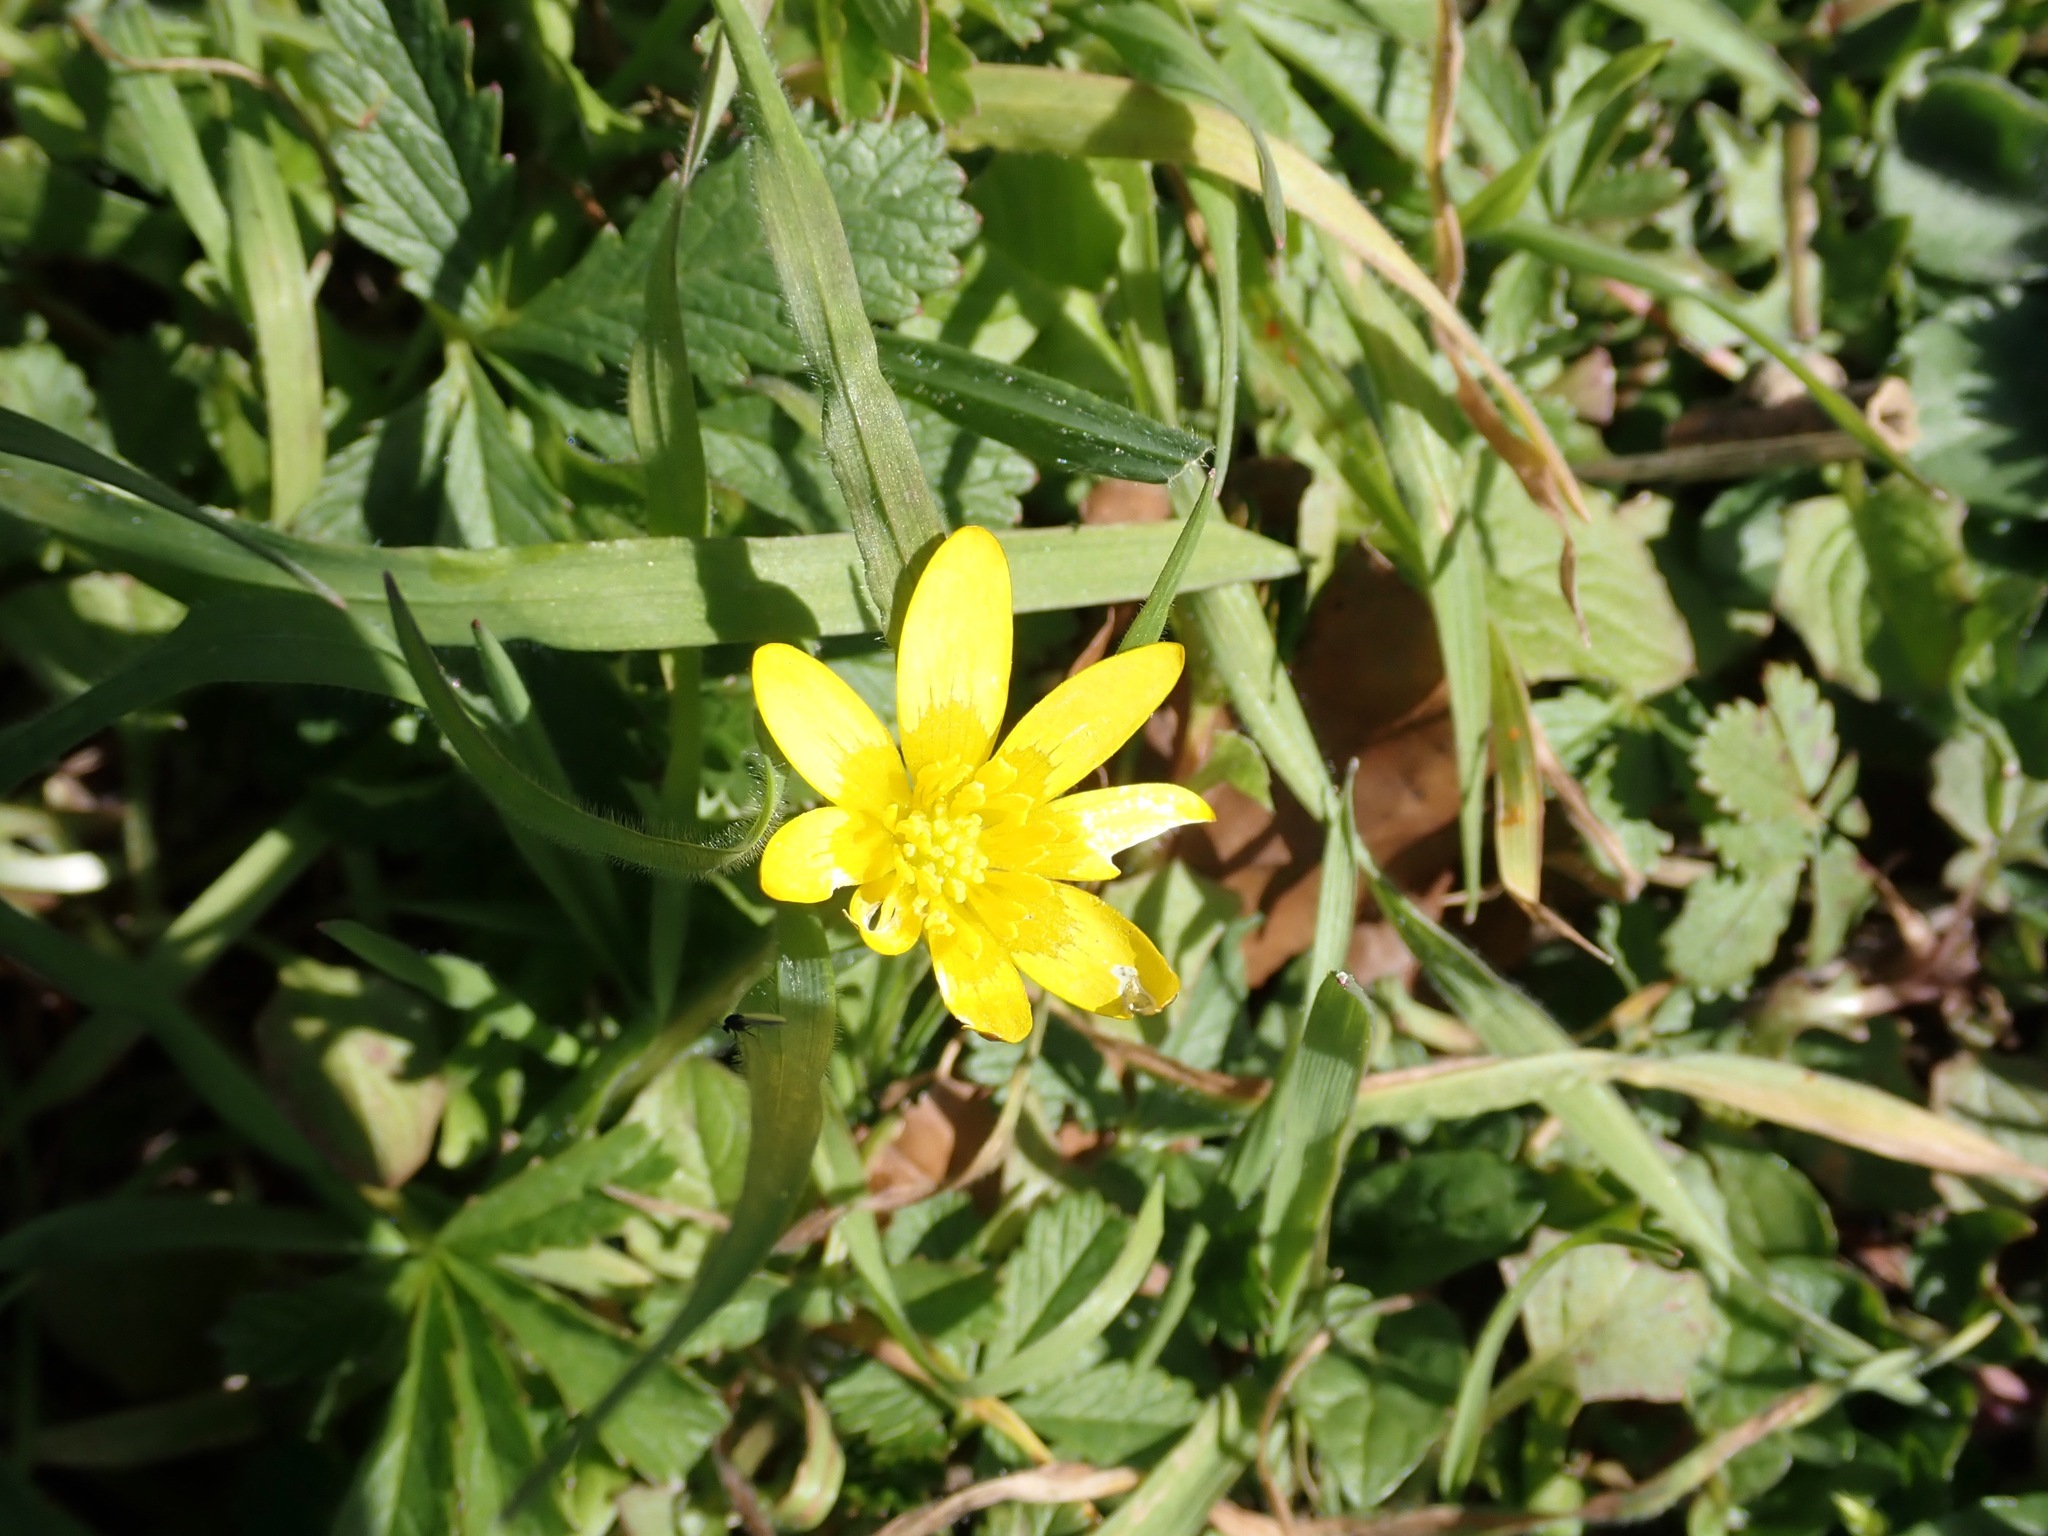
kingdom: Plantae
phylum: Tracheophyta
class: Magnoliopsida
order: Ranunculales
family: Ranunculaceae
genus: Ficaria
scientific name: Ficaria verna
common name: Lesser celandine
